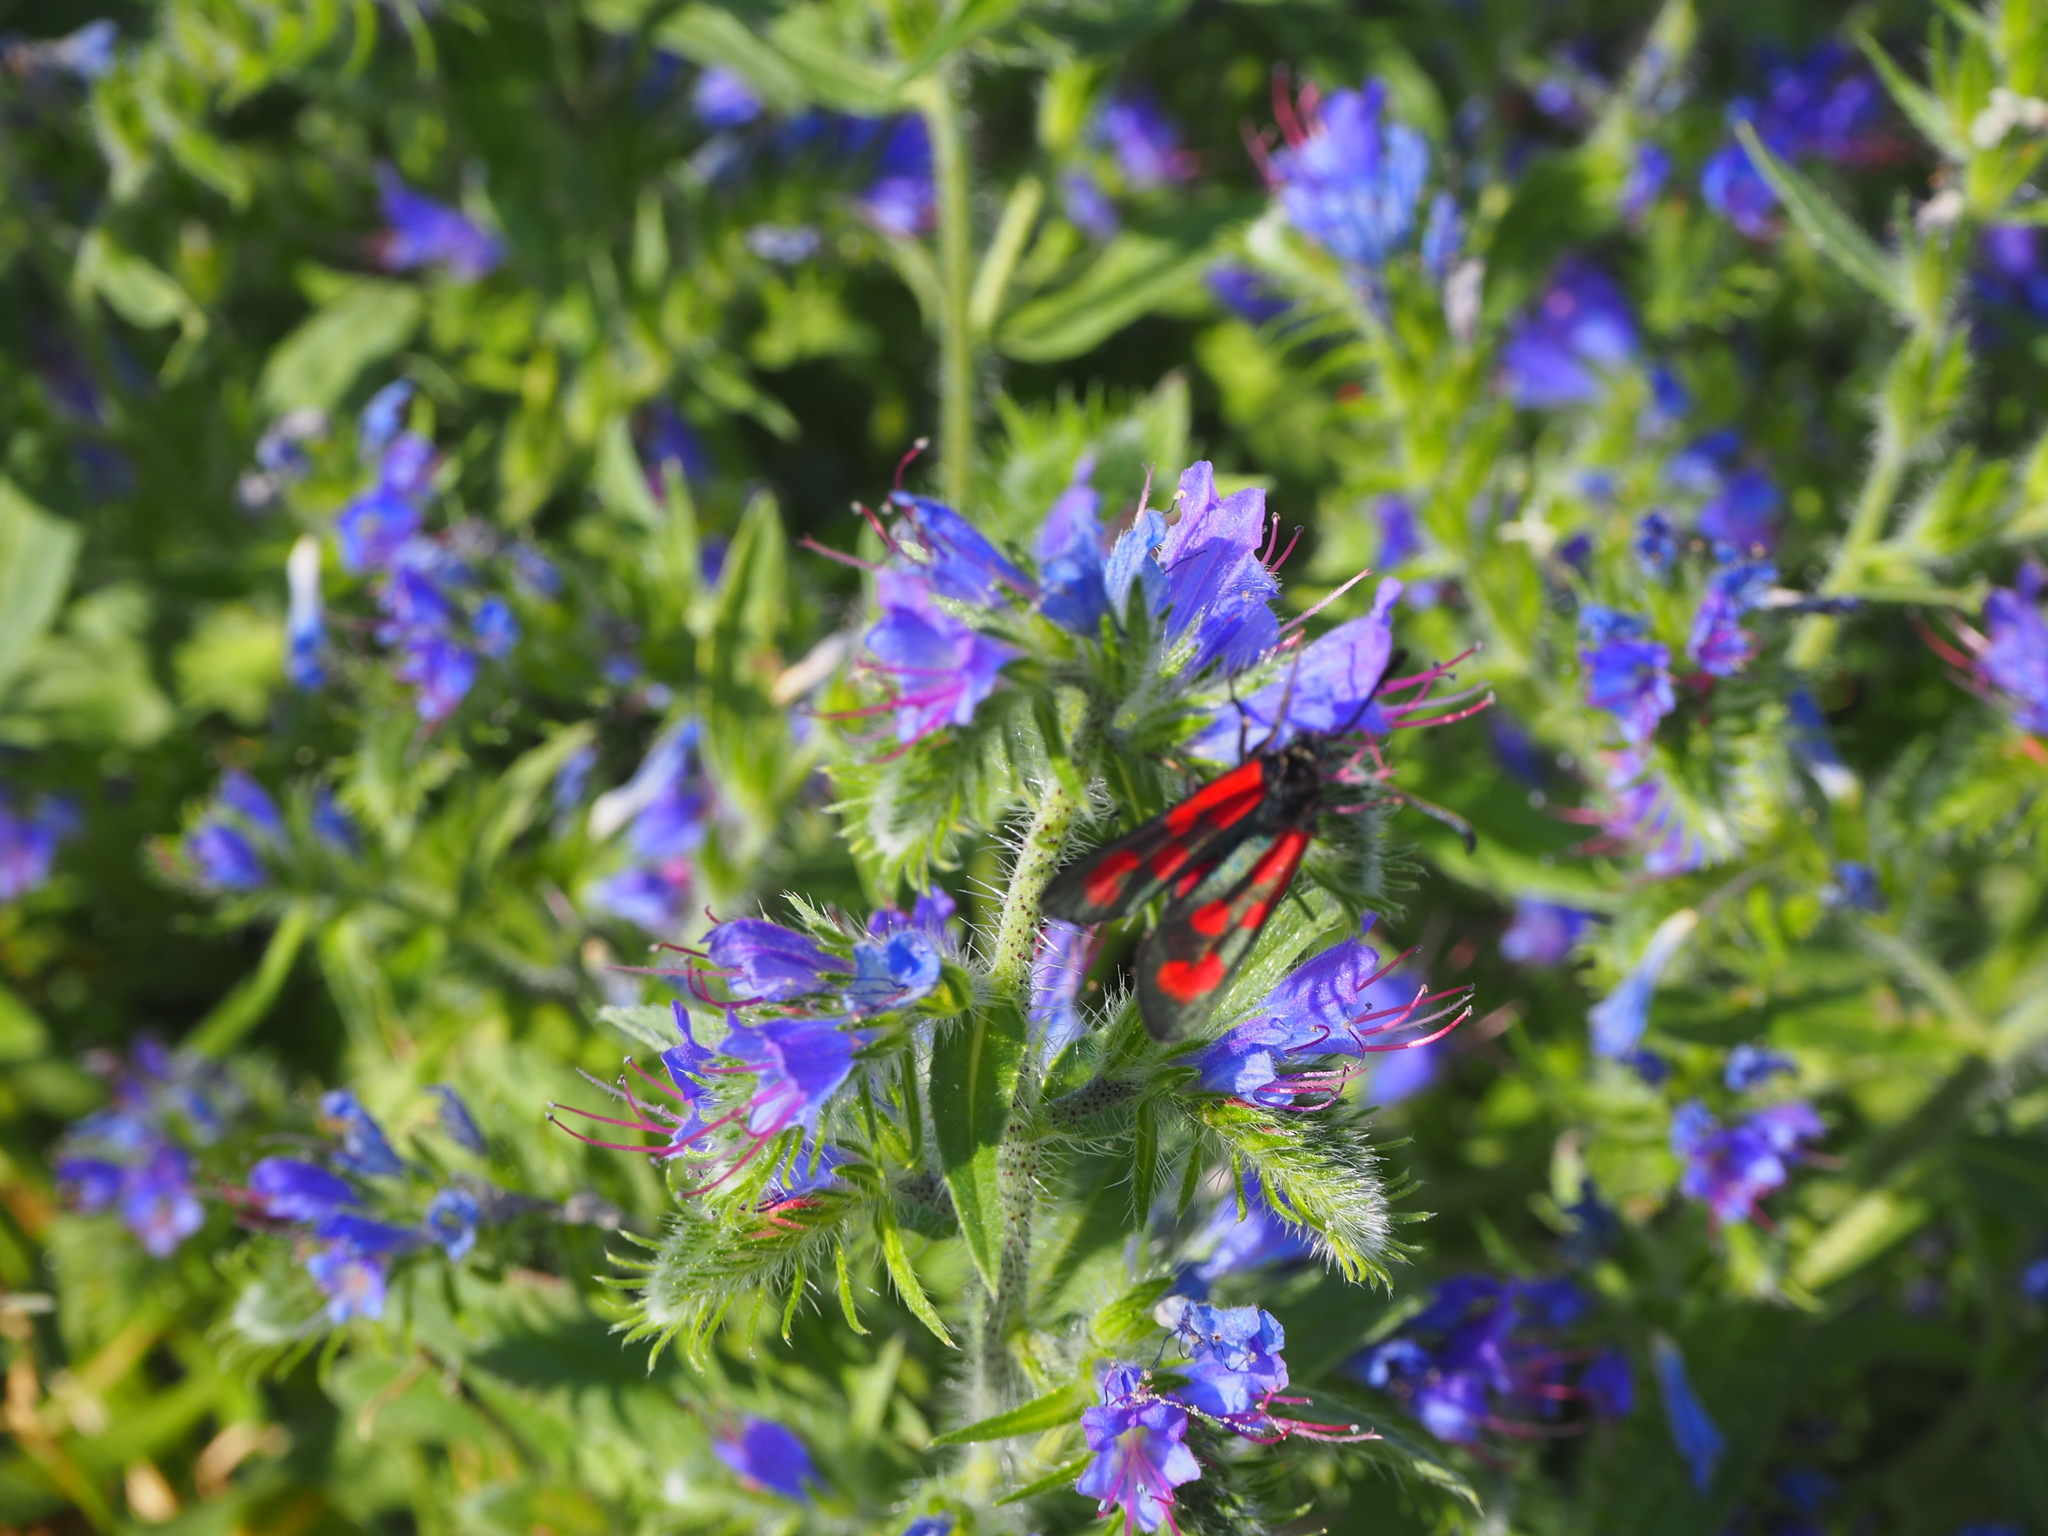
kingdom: Animalia
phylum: Arthropoda
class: Insecta
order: Lepidoptera
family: Zygaenidae
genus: Zygaena
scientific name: Zygaena loti
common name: Slender scotch burnet
